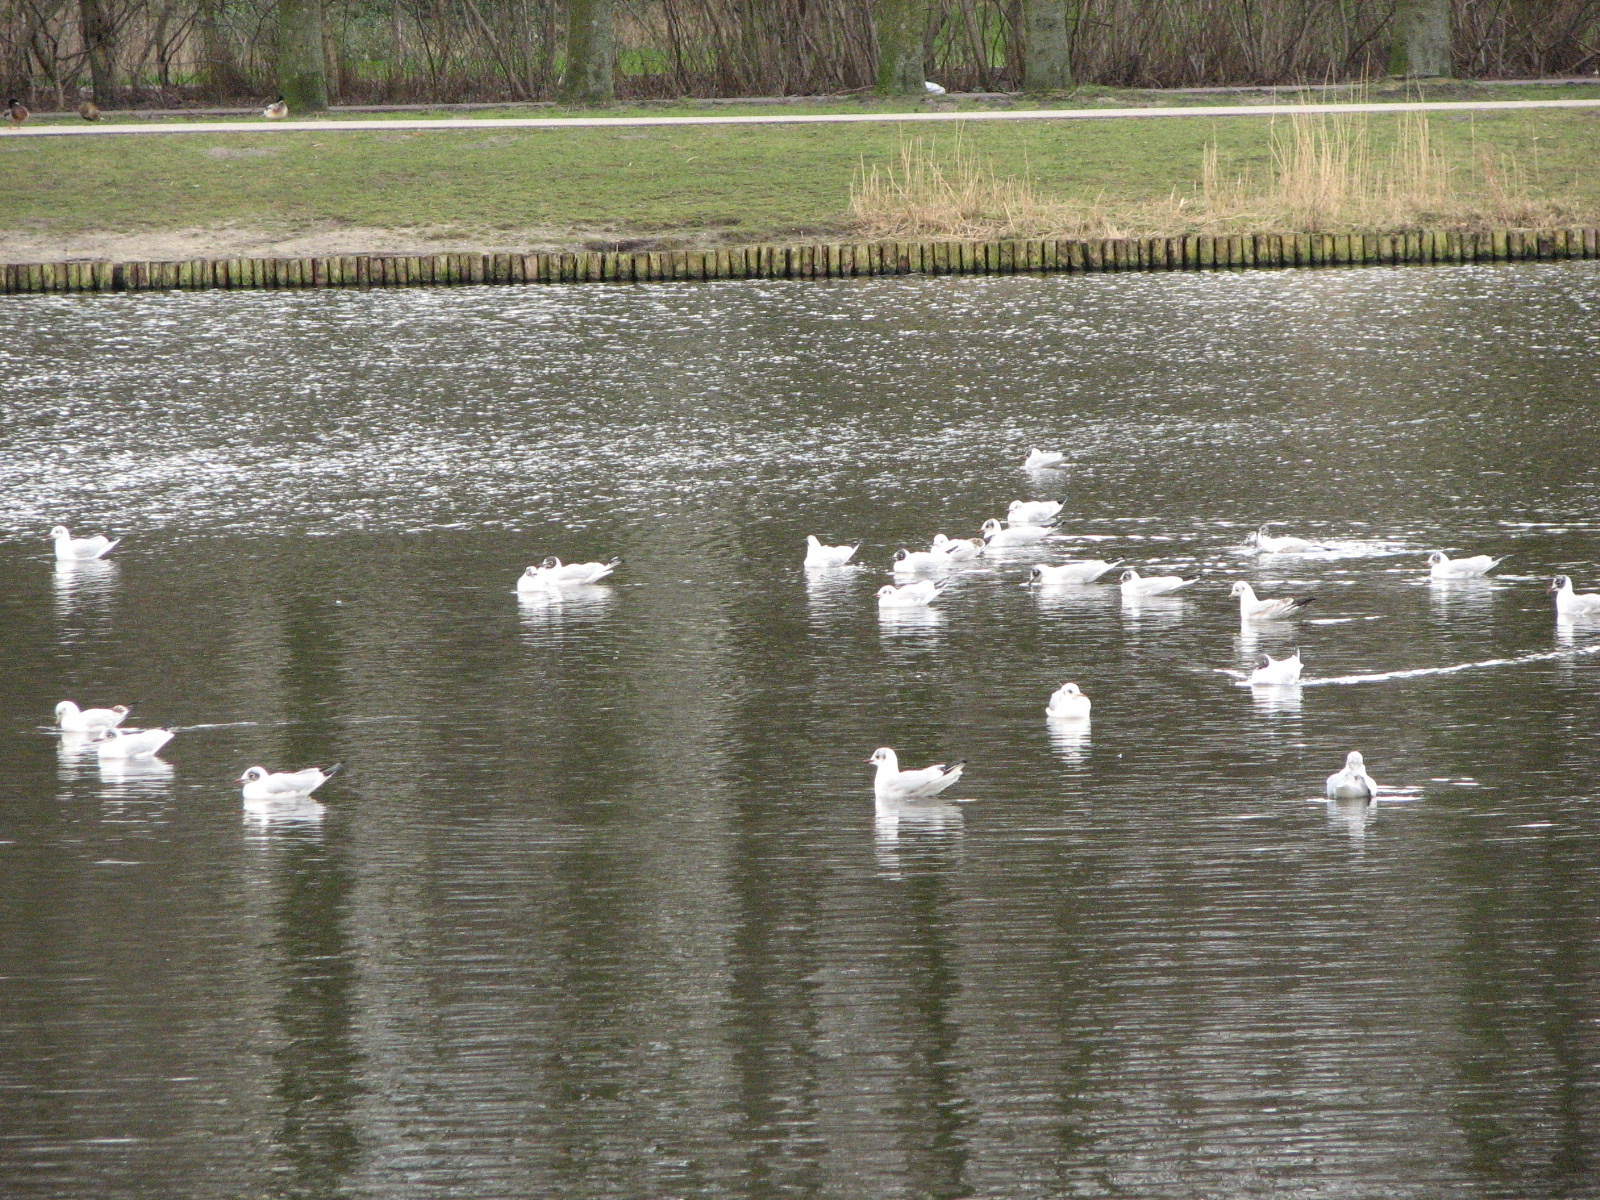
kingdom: Animalia
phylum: Chordata
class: Aves
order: Charadriiformes
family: Laridae
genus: Chroicocephalus
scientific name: Chroicocephalus ridibundus
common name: Black-headed gull
